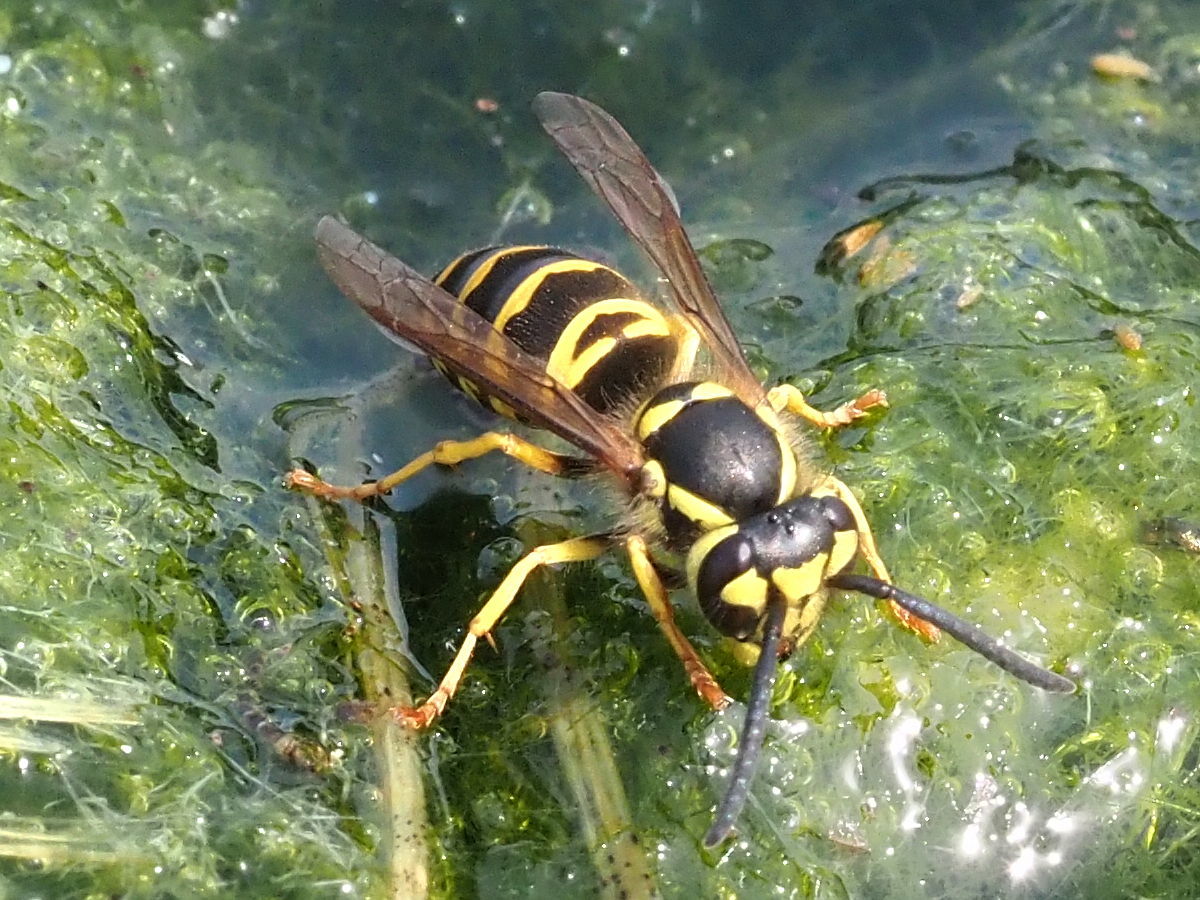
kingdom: Animalia
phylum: Arthropoda
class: Insecta
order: Hymenoptera
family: Vespidae
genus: Vespula
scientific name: Vespula maculifrons
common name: Eastern yellowjacket
